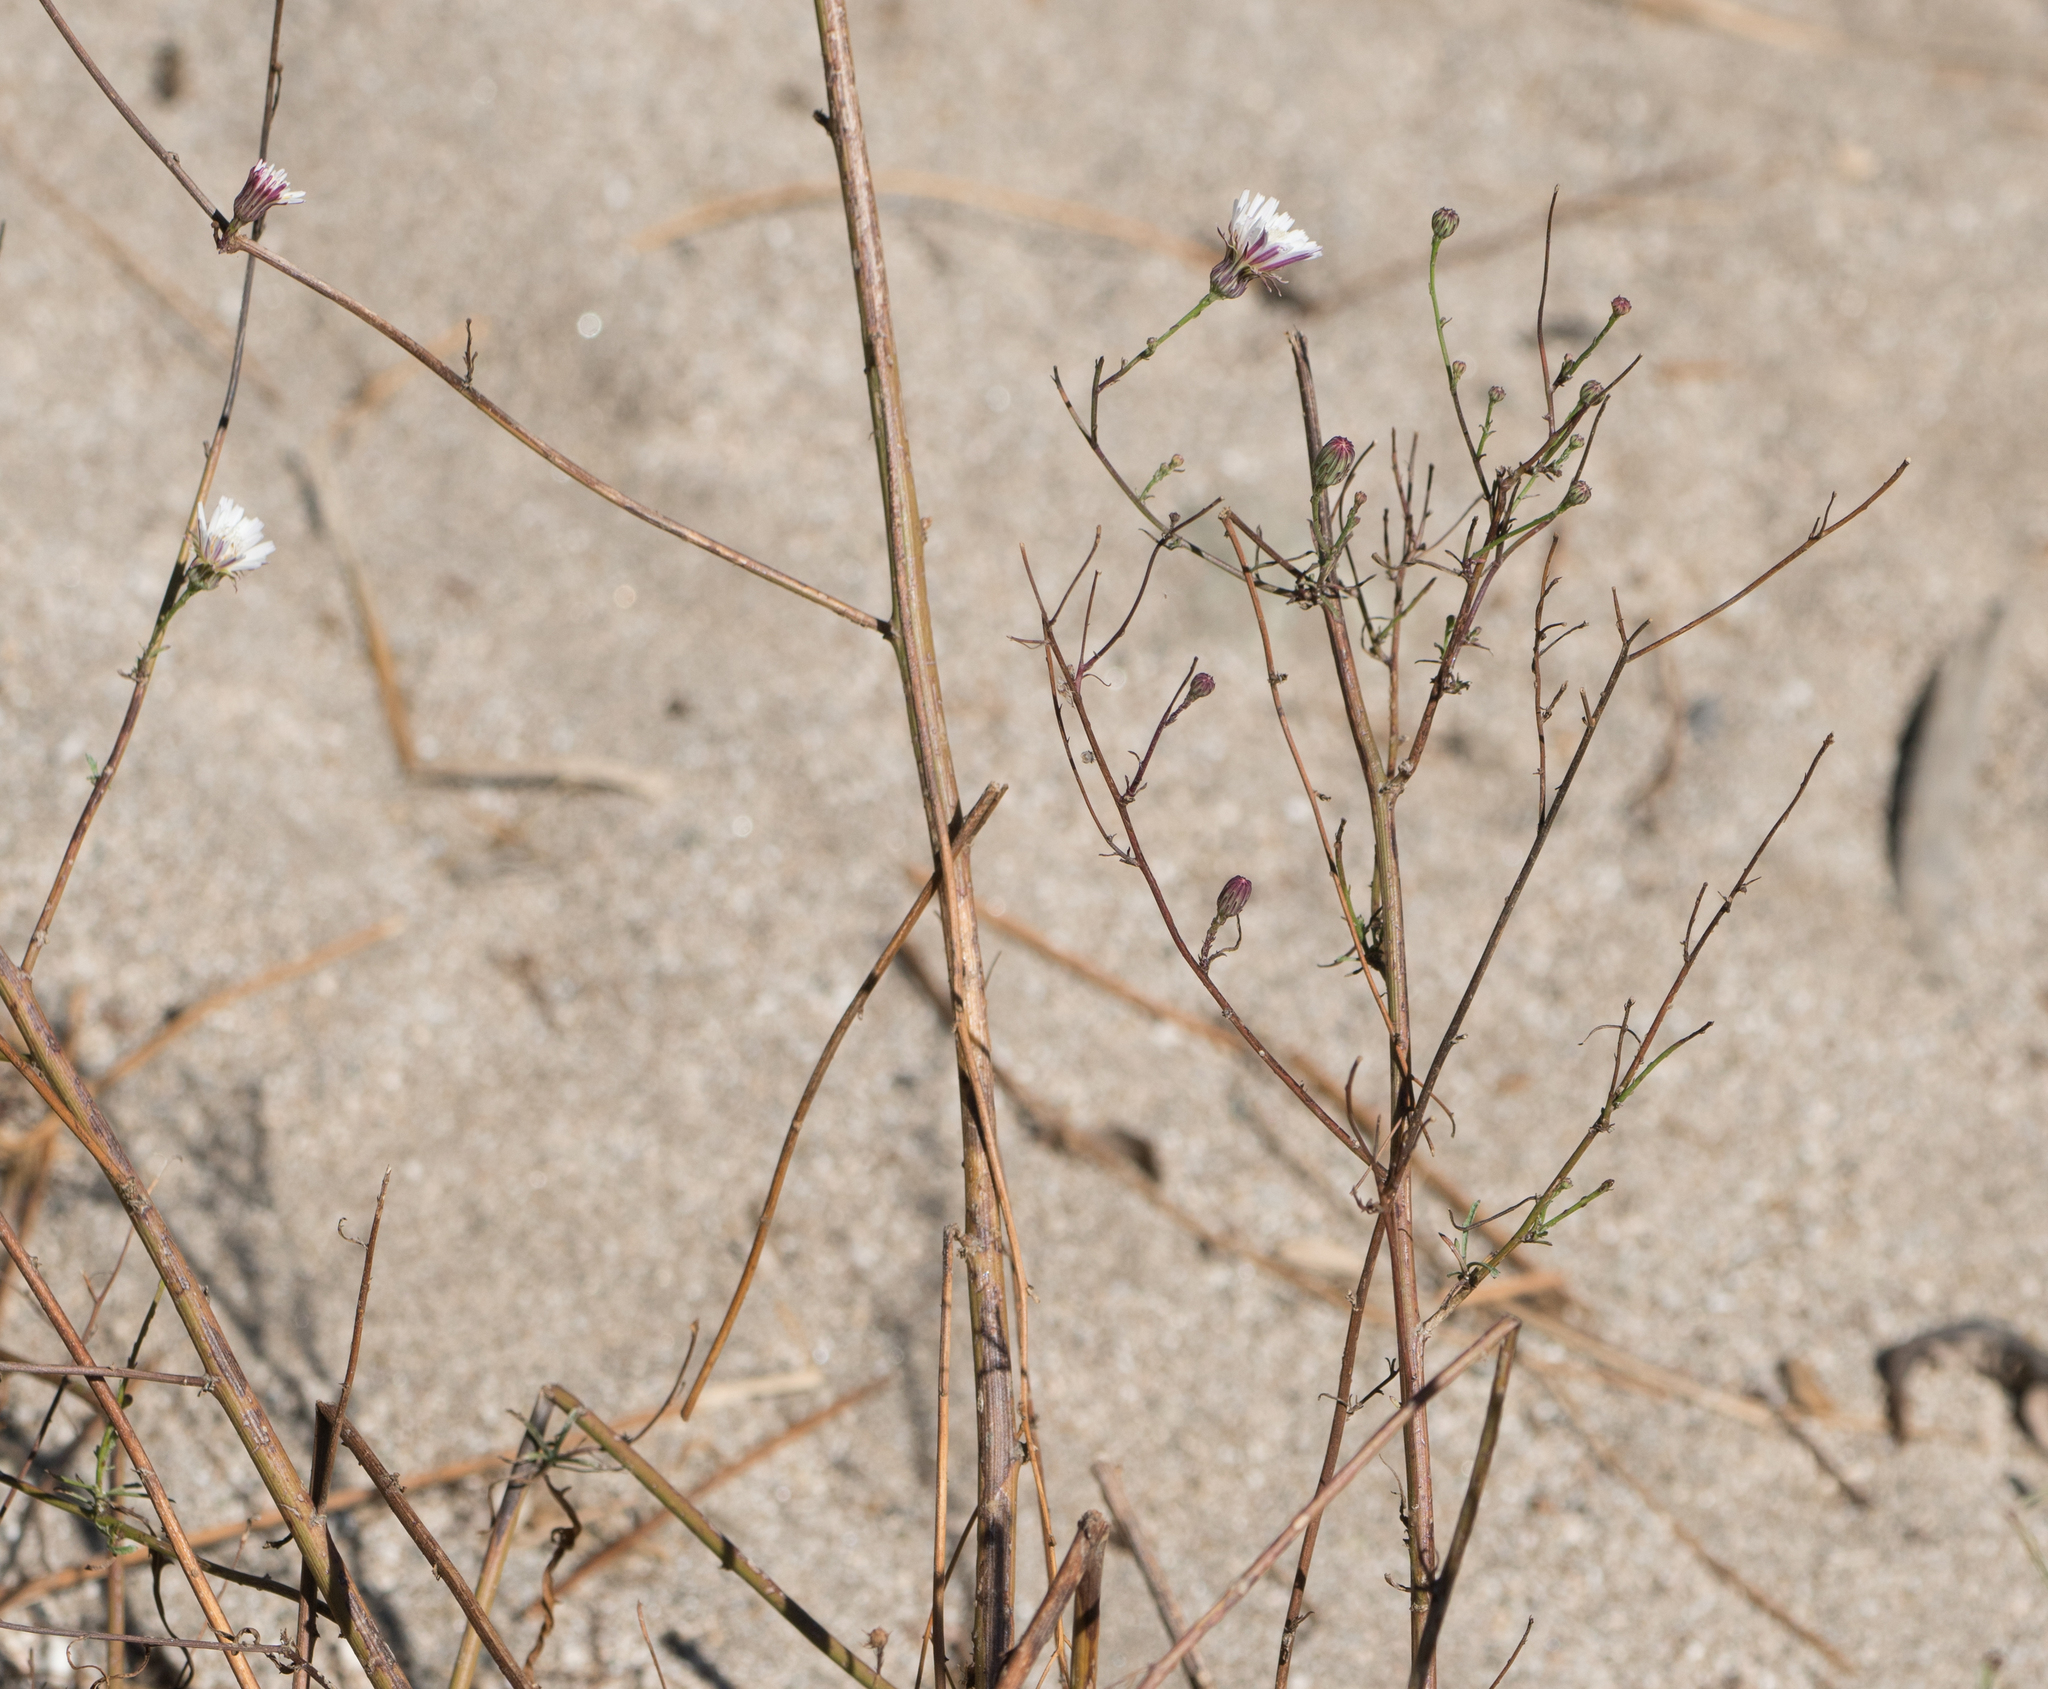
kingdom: Plantae
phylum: Tracheophyta
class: Magnoliopsida
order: Asterales
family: Asteraceae
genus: Malacothrix
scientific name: Malacothrix saxatilis
